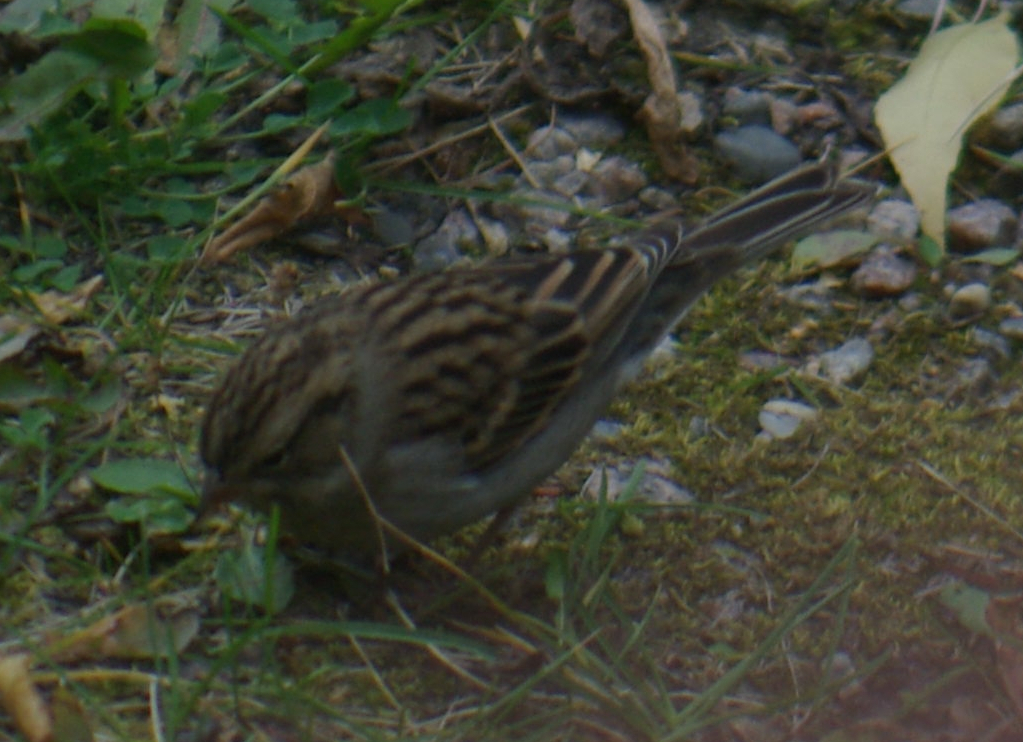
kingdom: Animalia
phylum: Chordata
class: Aves
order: Passeriformes
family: Passerellidae
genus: Spizella
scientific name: Spizella passerina
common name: Chipping sparrow
